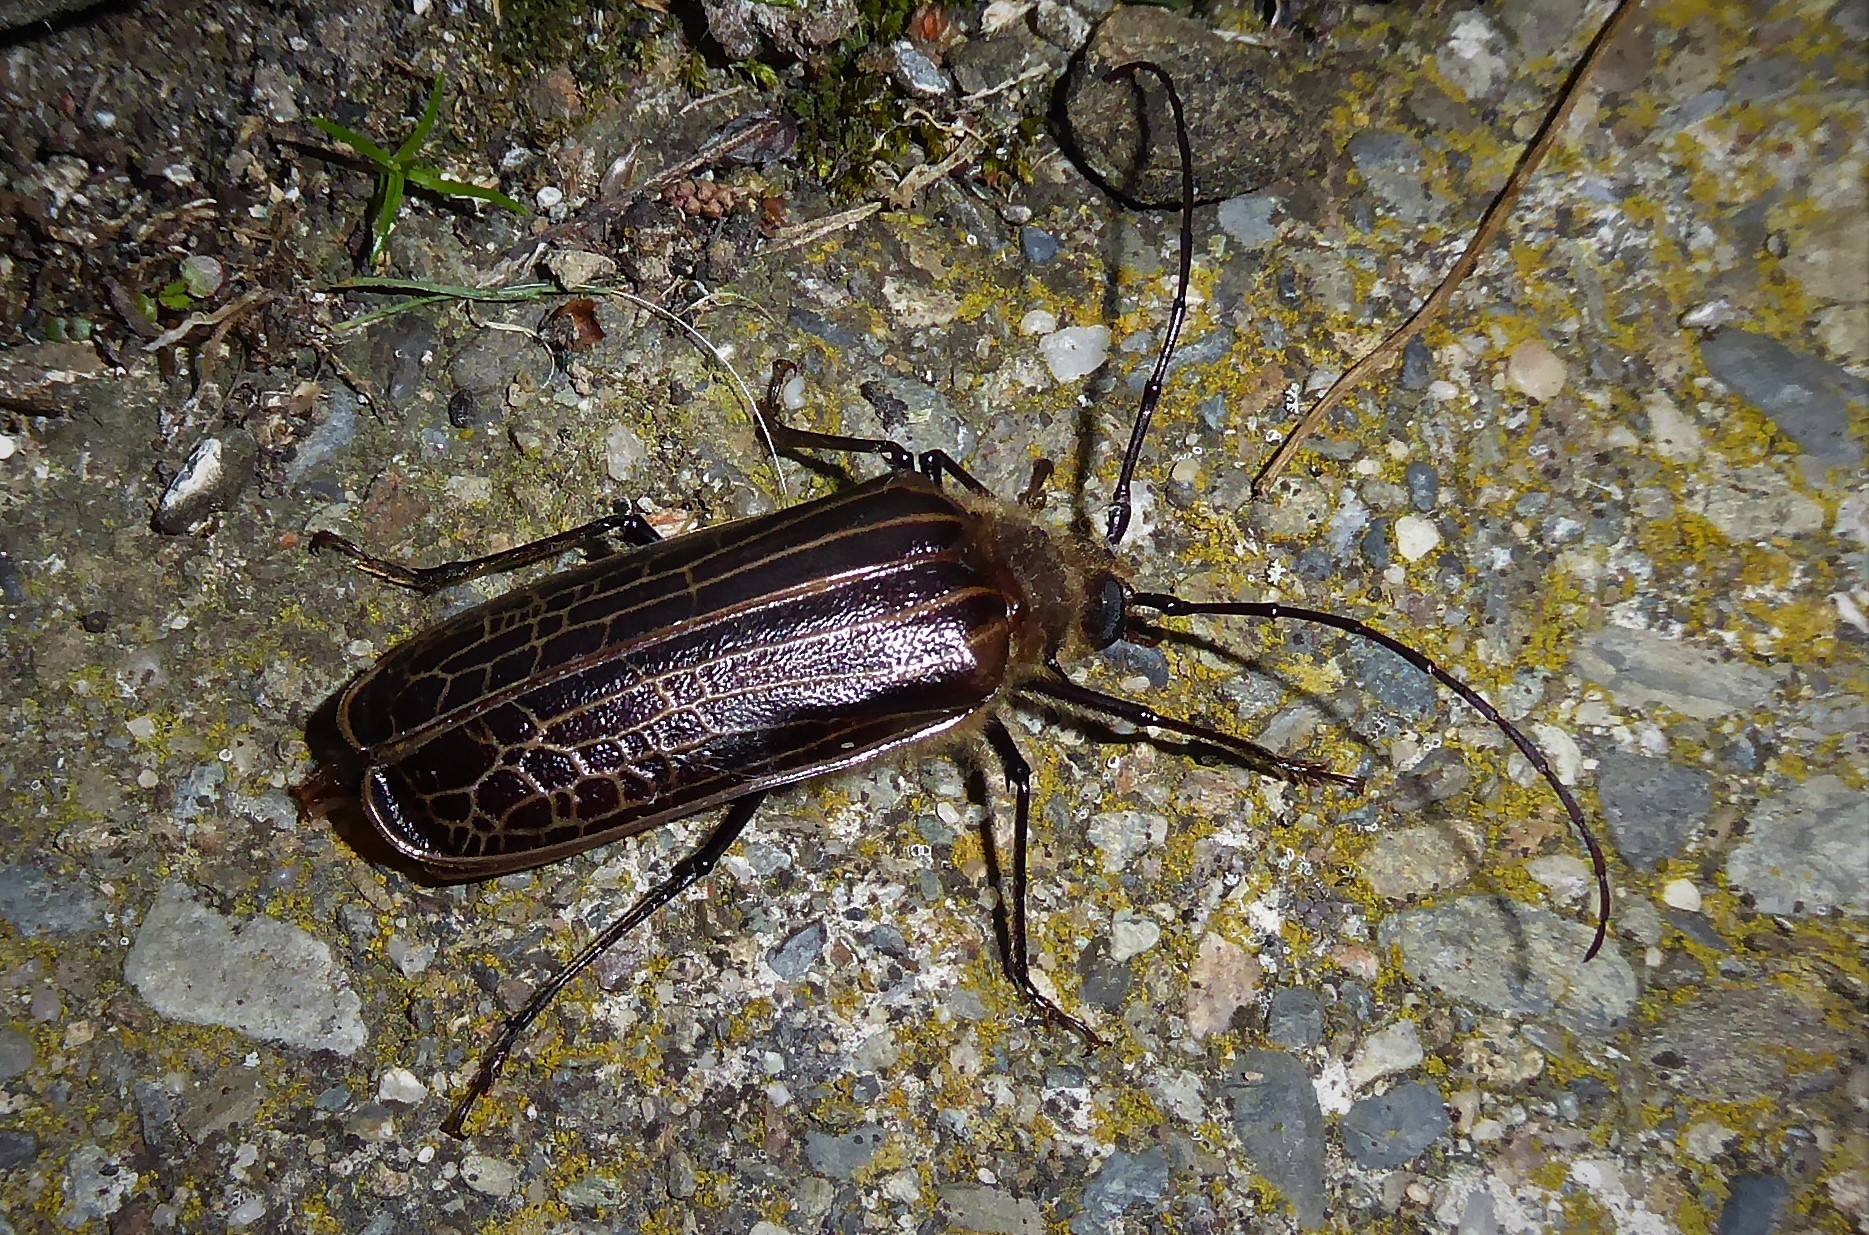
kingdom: Animalia
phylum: Arthropoda
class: Insecta
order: Coleoptera
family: Cerambycidae
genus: Prionoplus
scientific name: Prionoplus reticularis
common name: Huhu beetle
